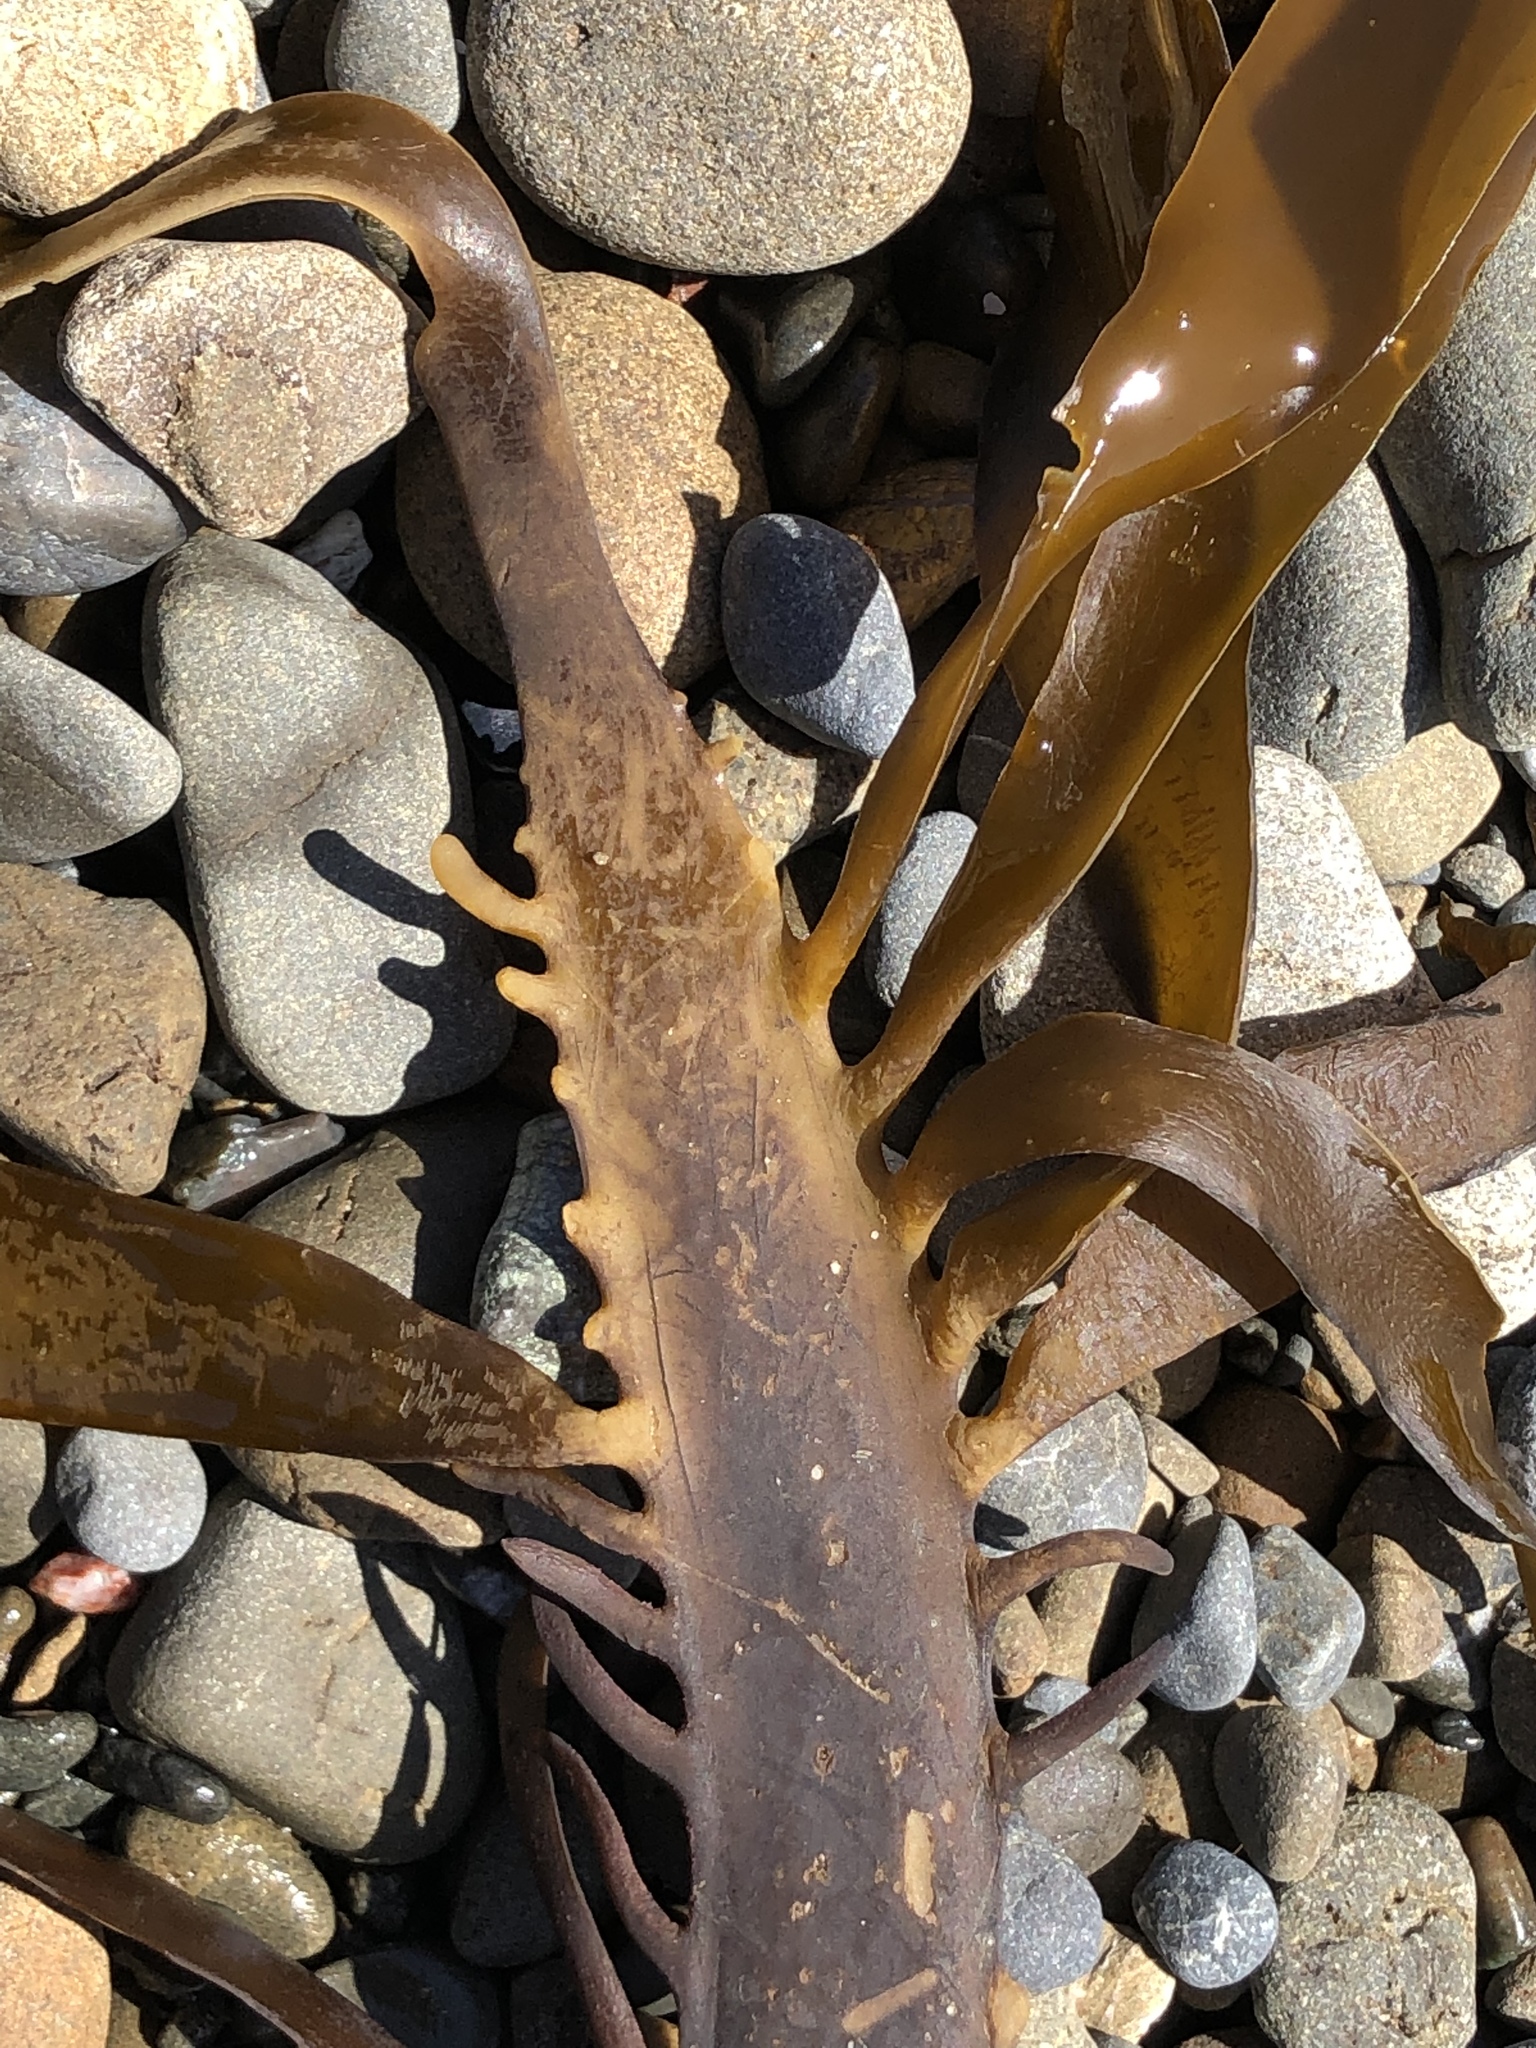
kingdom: Chromista
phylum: Ochrophyta
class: Phaeophyceae
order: Laminariales
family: Alariaceae
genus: Pterygophora
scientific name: Pterygophora californica
